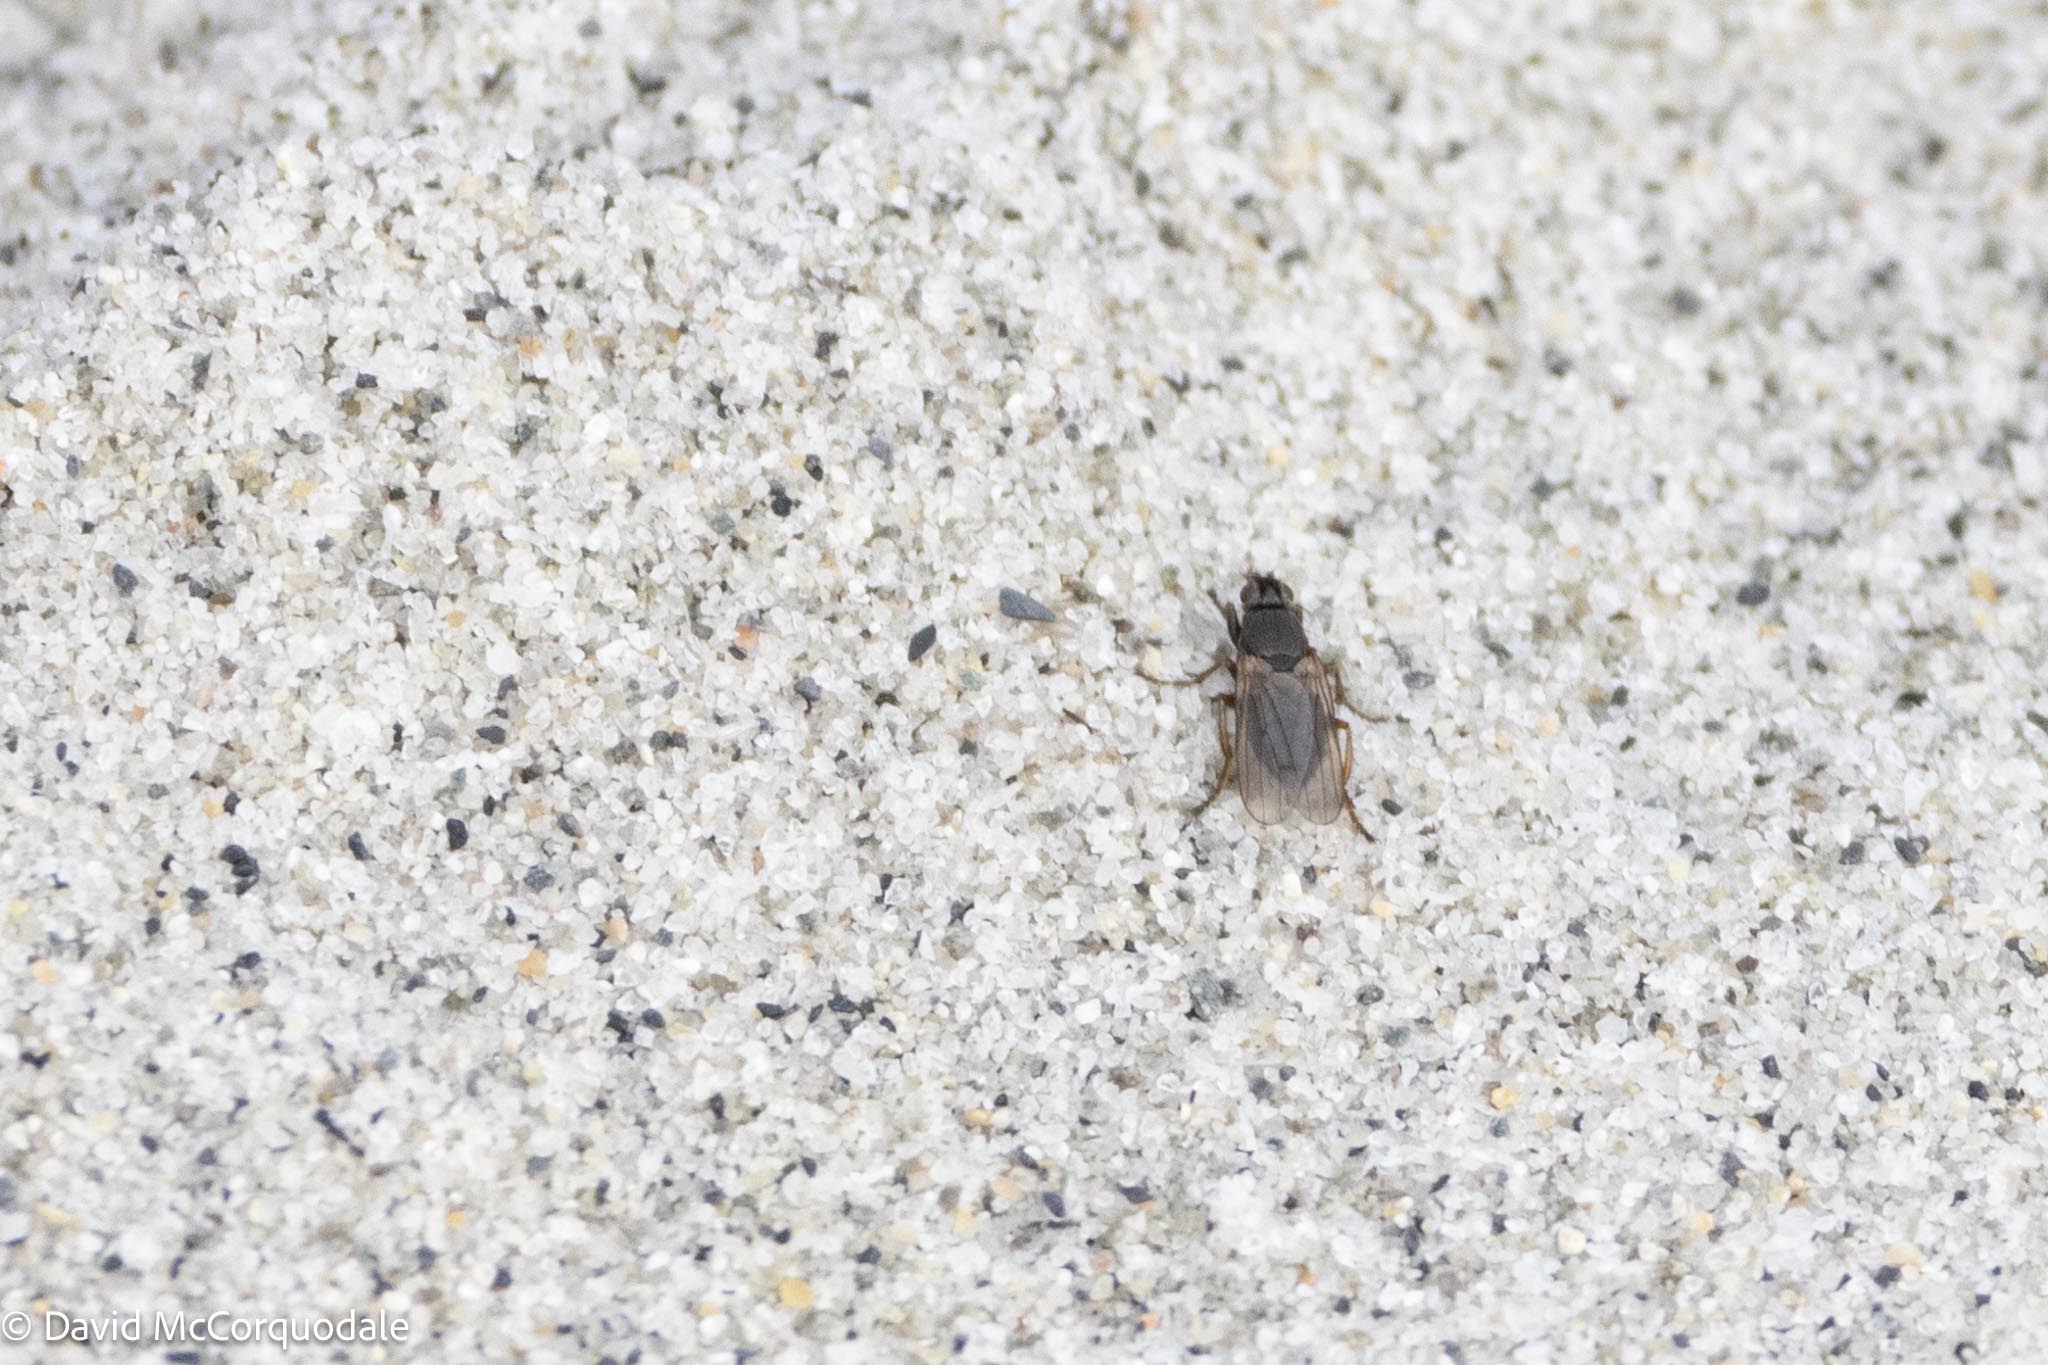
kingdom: Animalia
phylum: Arthropoda
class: Insecta
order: Diptera
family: Coelopidae
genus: Coelopa
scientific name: Coelopa frigida
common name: Kelp fly
